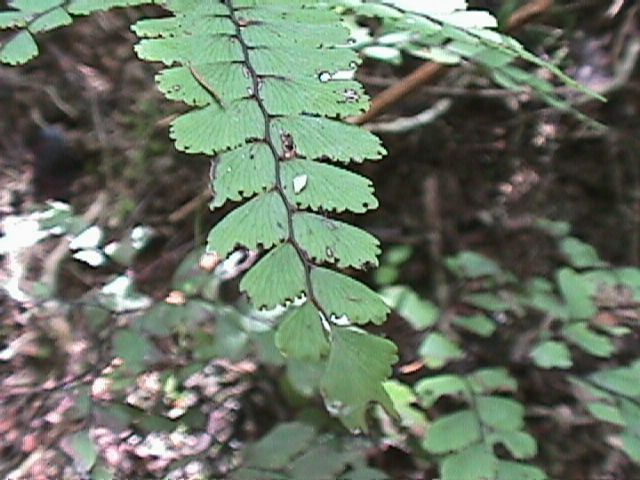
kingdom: Plantae
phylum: Tracheophyta
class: Polypodiopsida
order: Polypodiales
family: Pteridaceae
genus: Adiantum
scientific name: Adiantum cunninghamii
